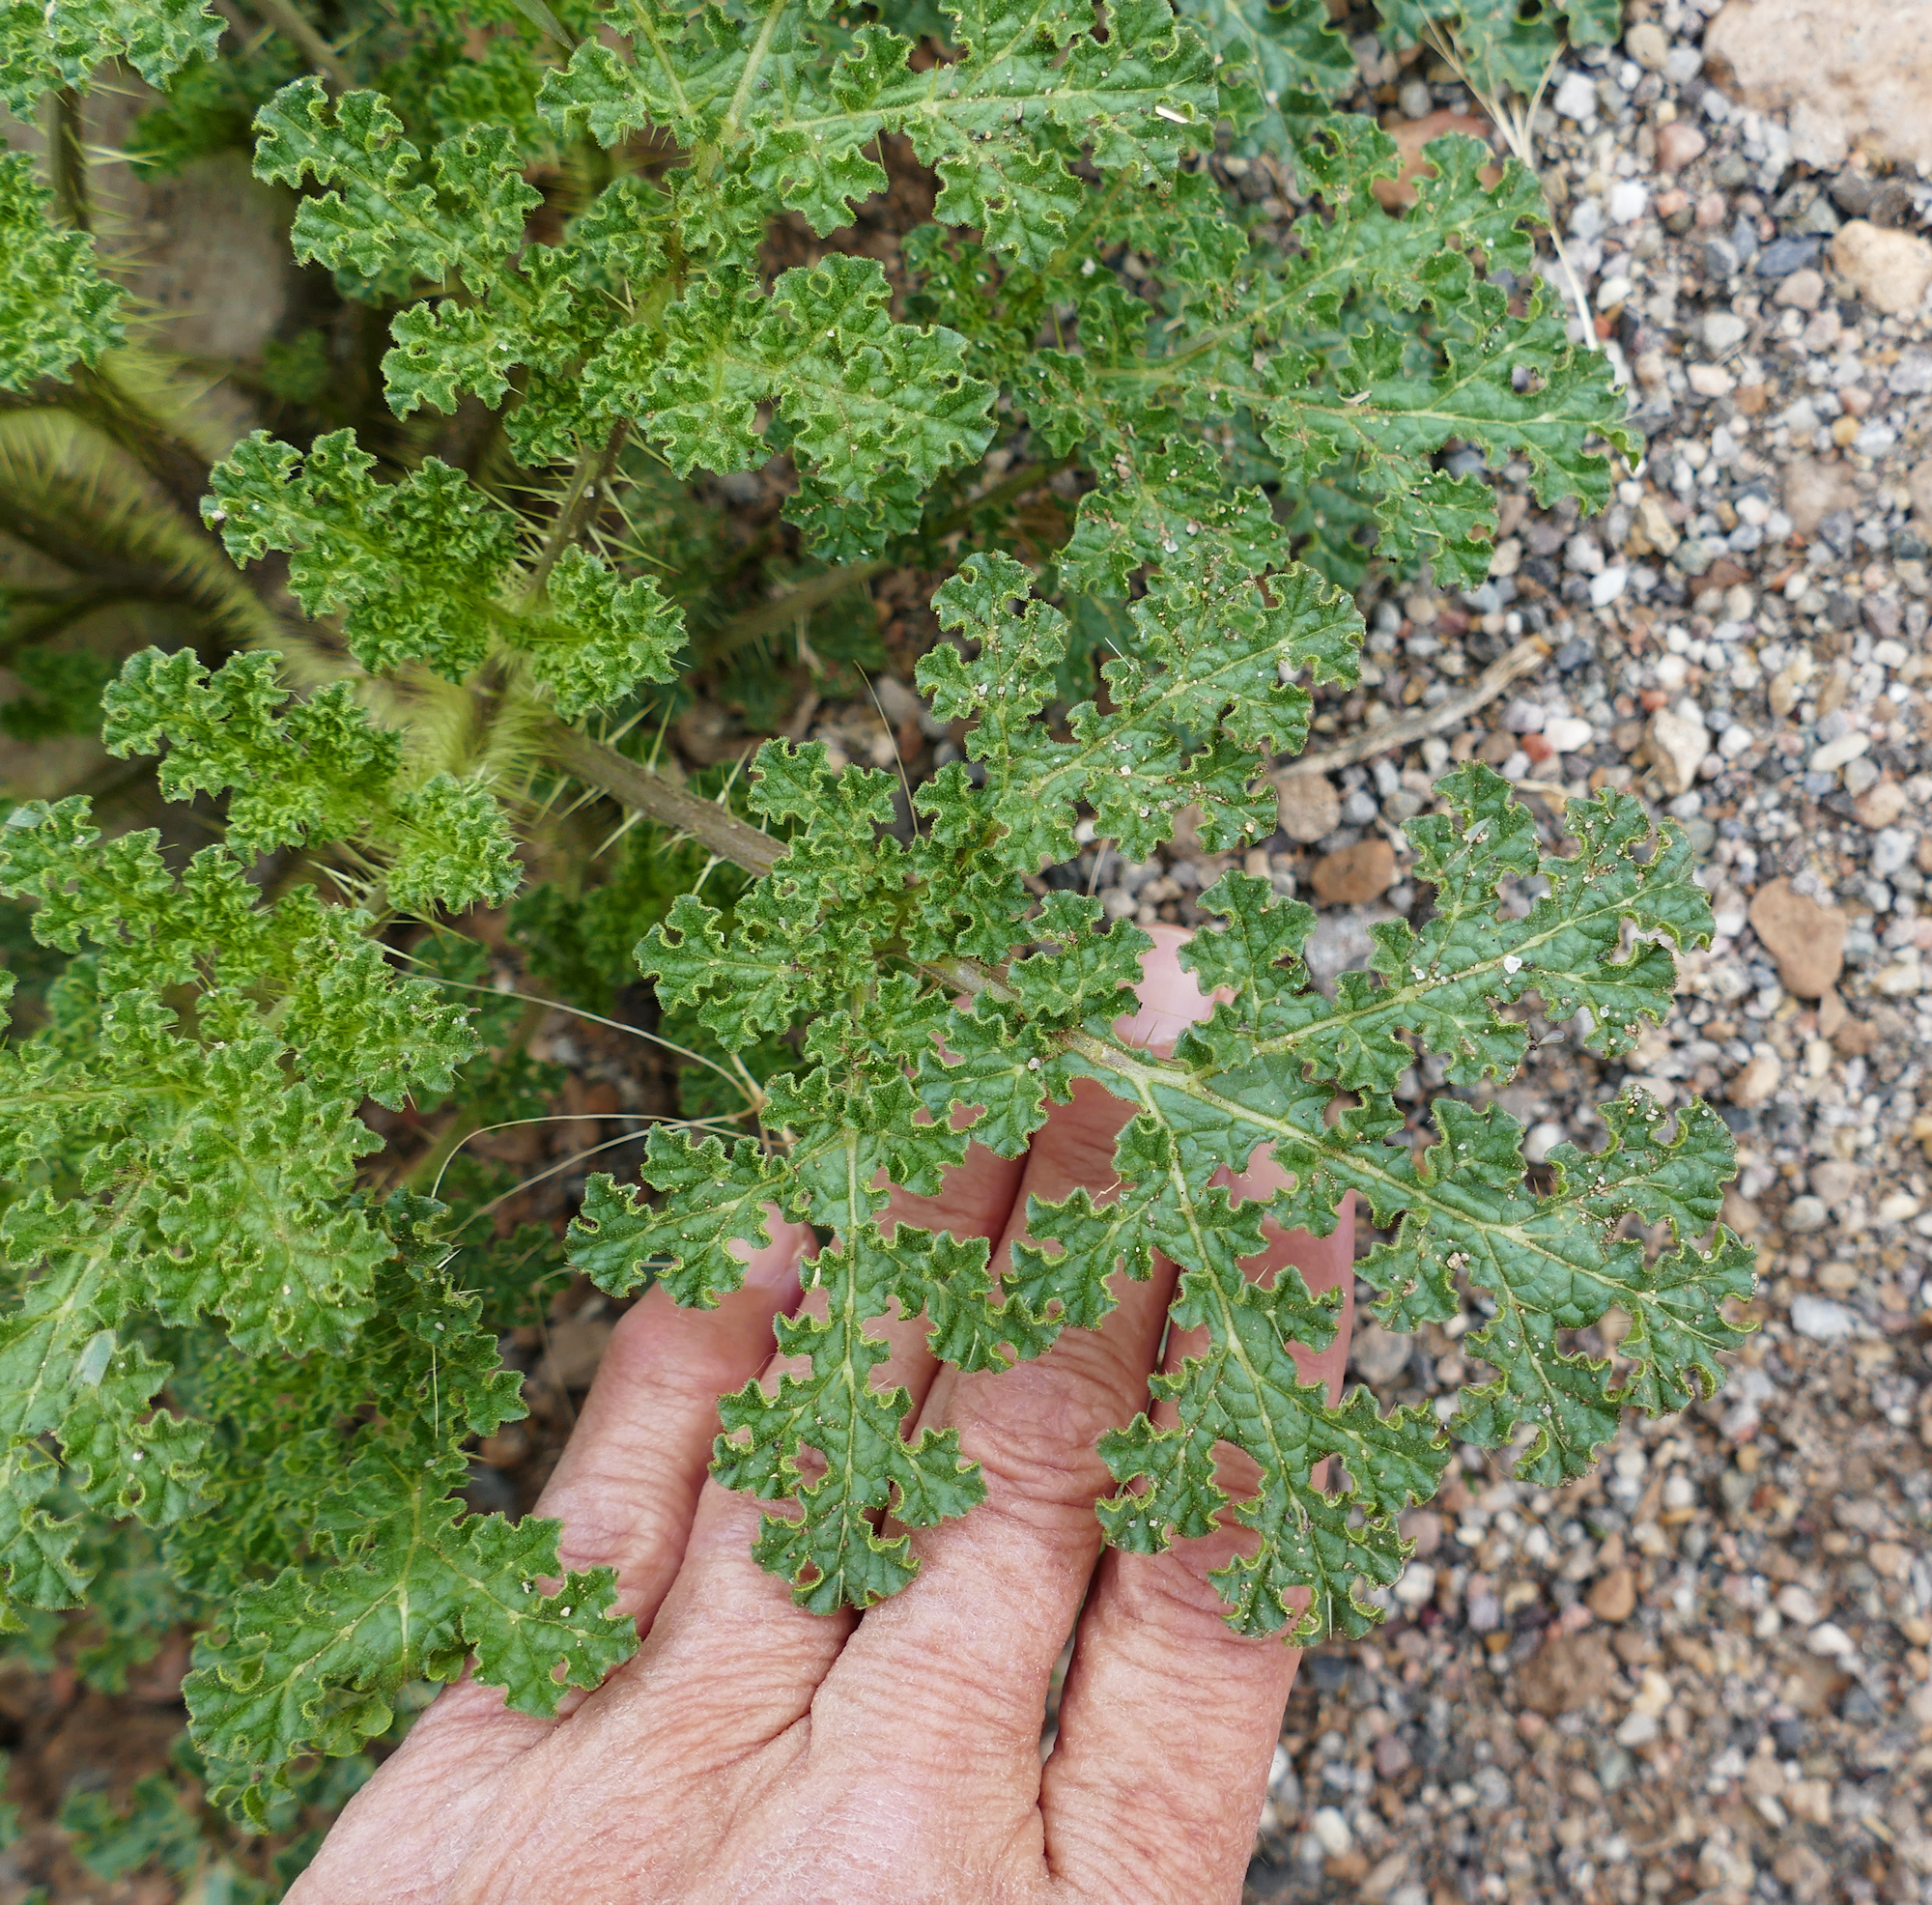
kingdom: Plantae
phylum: Tracheophyta
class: Magnoliopsida
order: Solanales
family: Solanaceae
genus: Solanum
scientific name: Solanum heterodoxum
